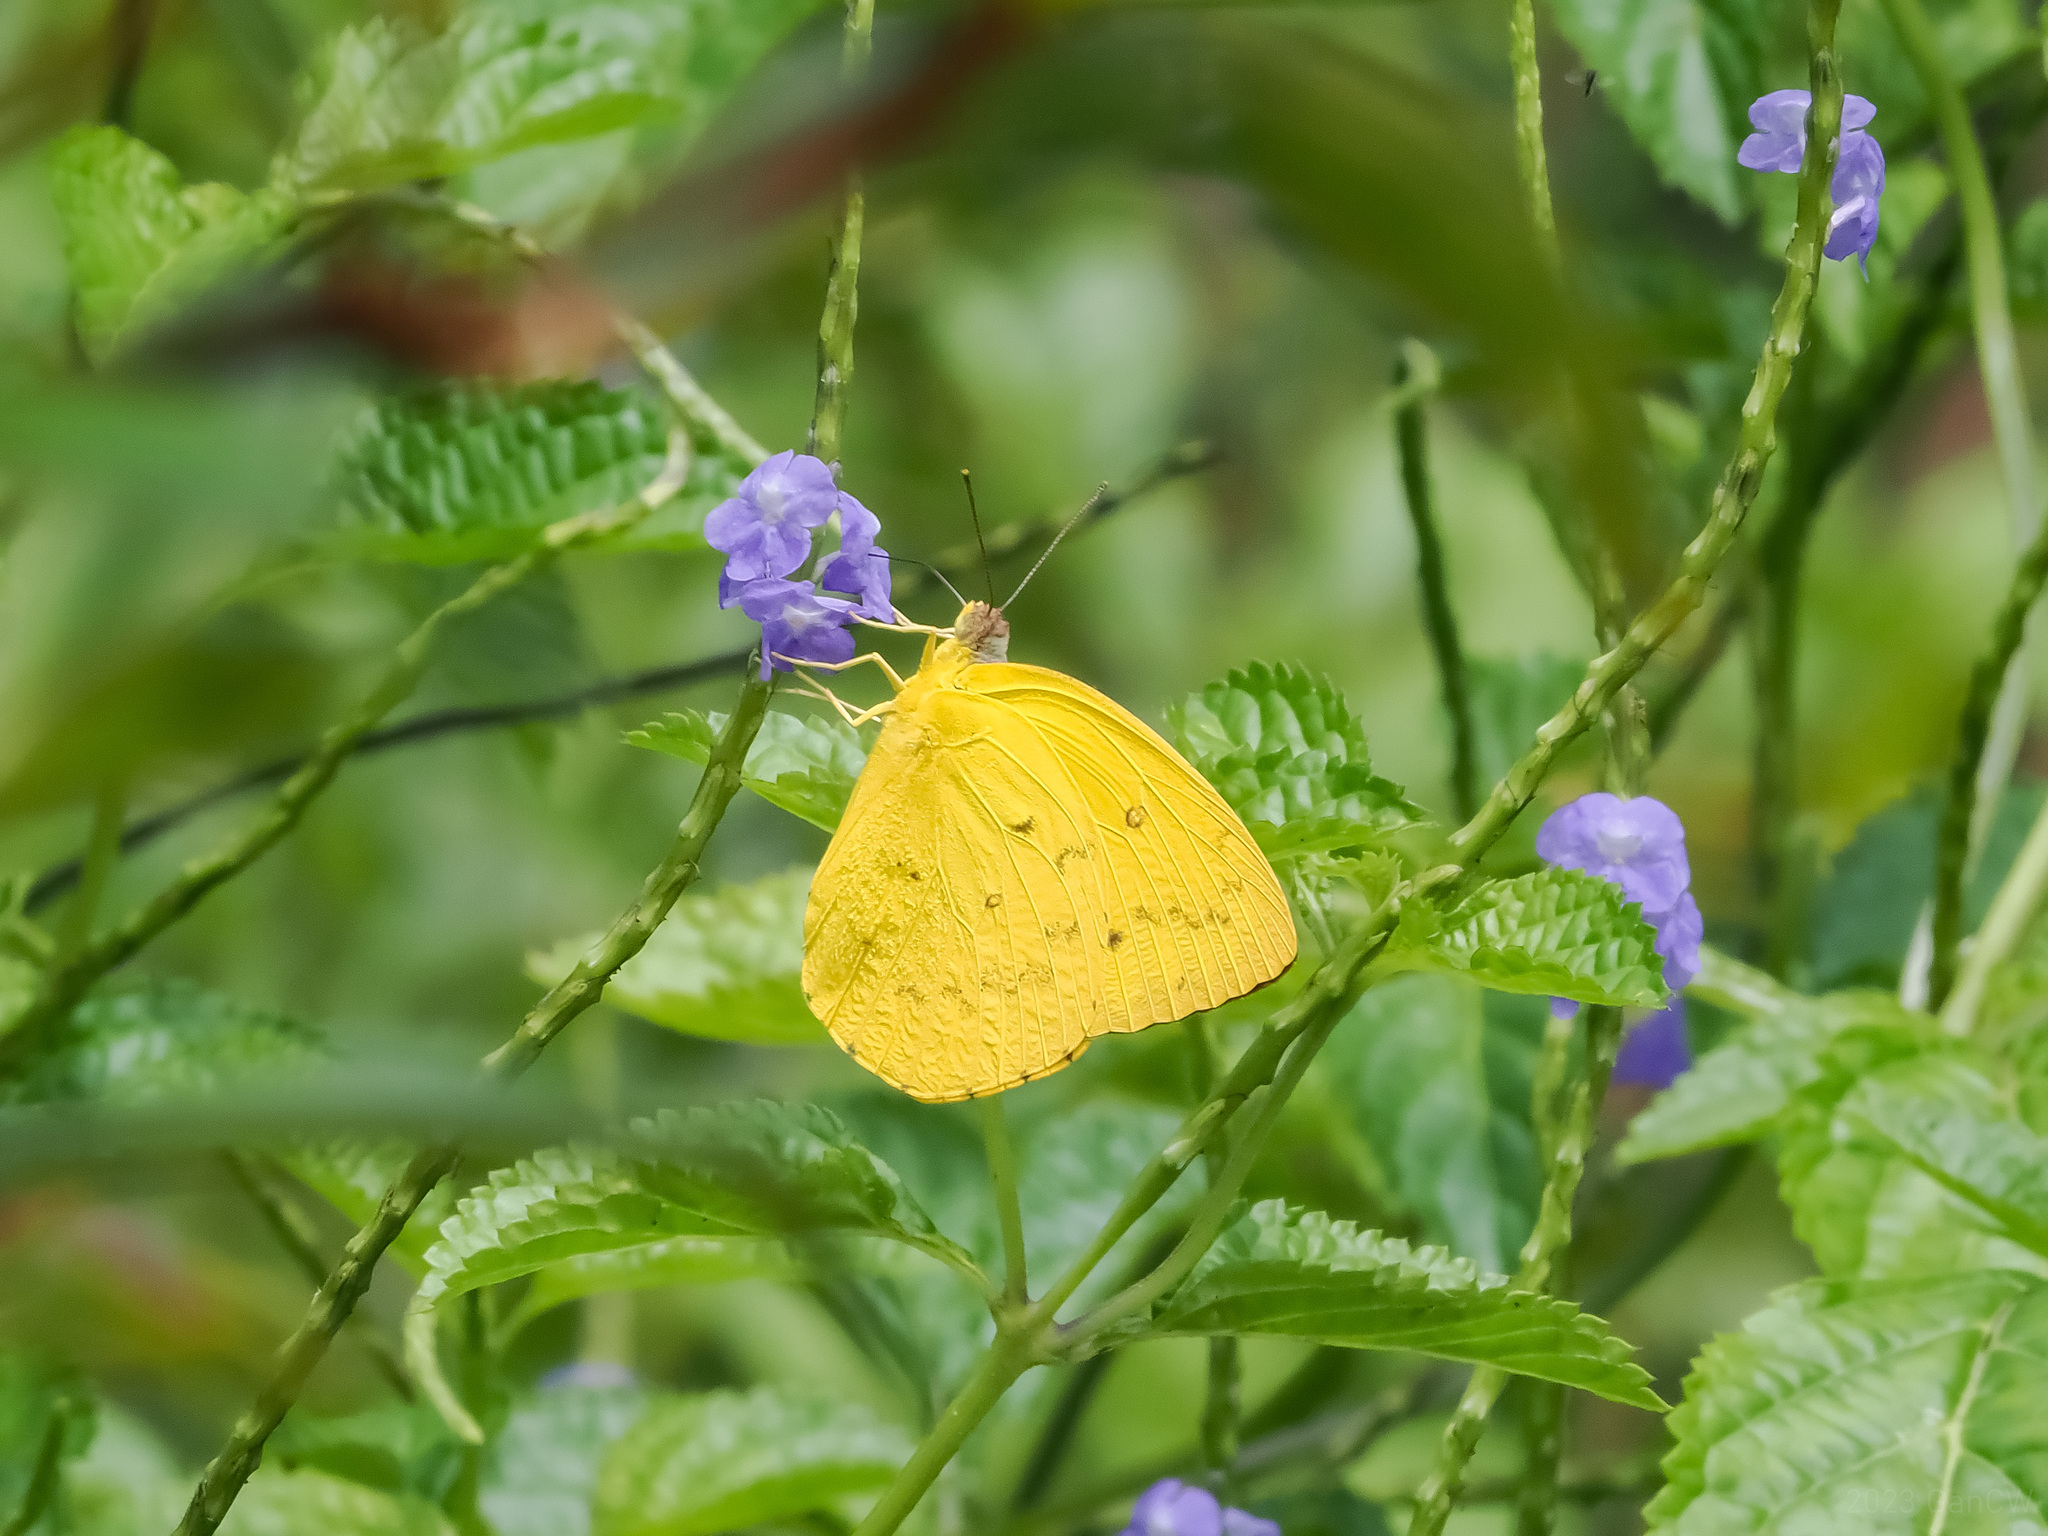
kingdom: Animalia
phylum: Arthropoda
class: Insecta
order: Lepidoptera
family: Pieridae
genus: Catopsilia
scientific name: Catopsilia scylla
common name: Orange emigrant
